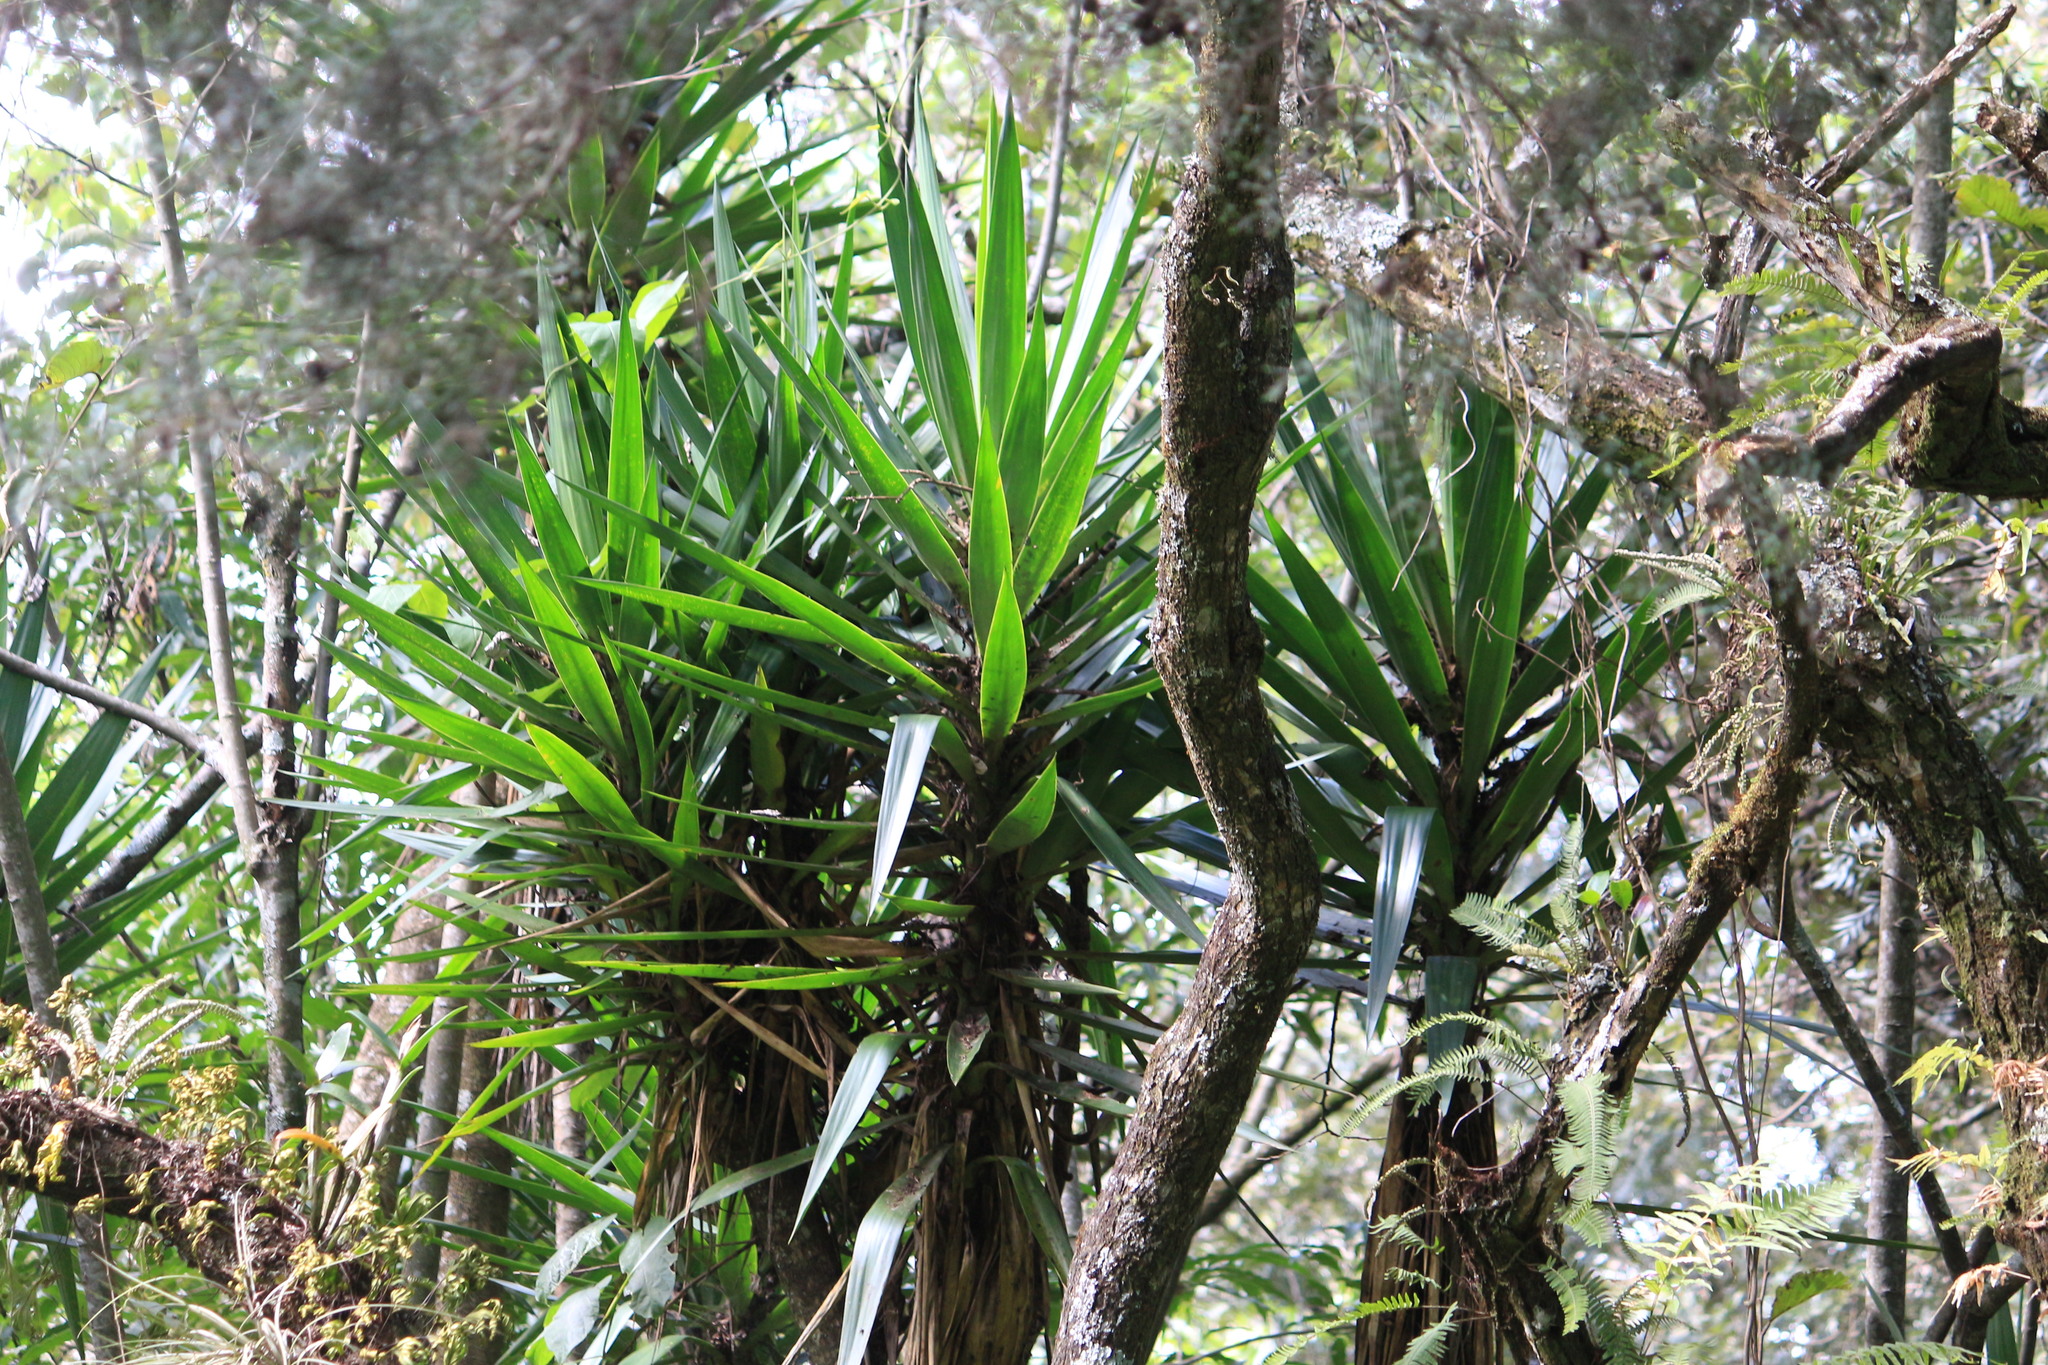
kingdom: Plantae
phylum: Tracheophyta
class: Liliopsida
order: Asparagales
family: Asparagaceae
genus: Yucca
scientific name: Yucca gigantea
